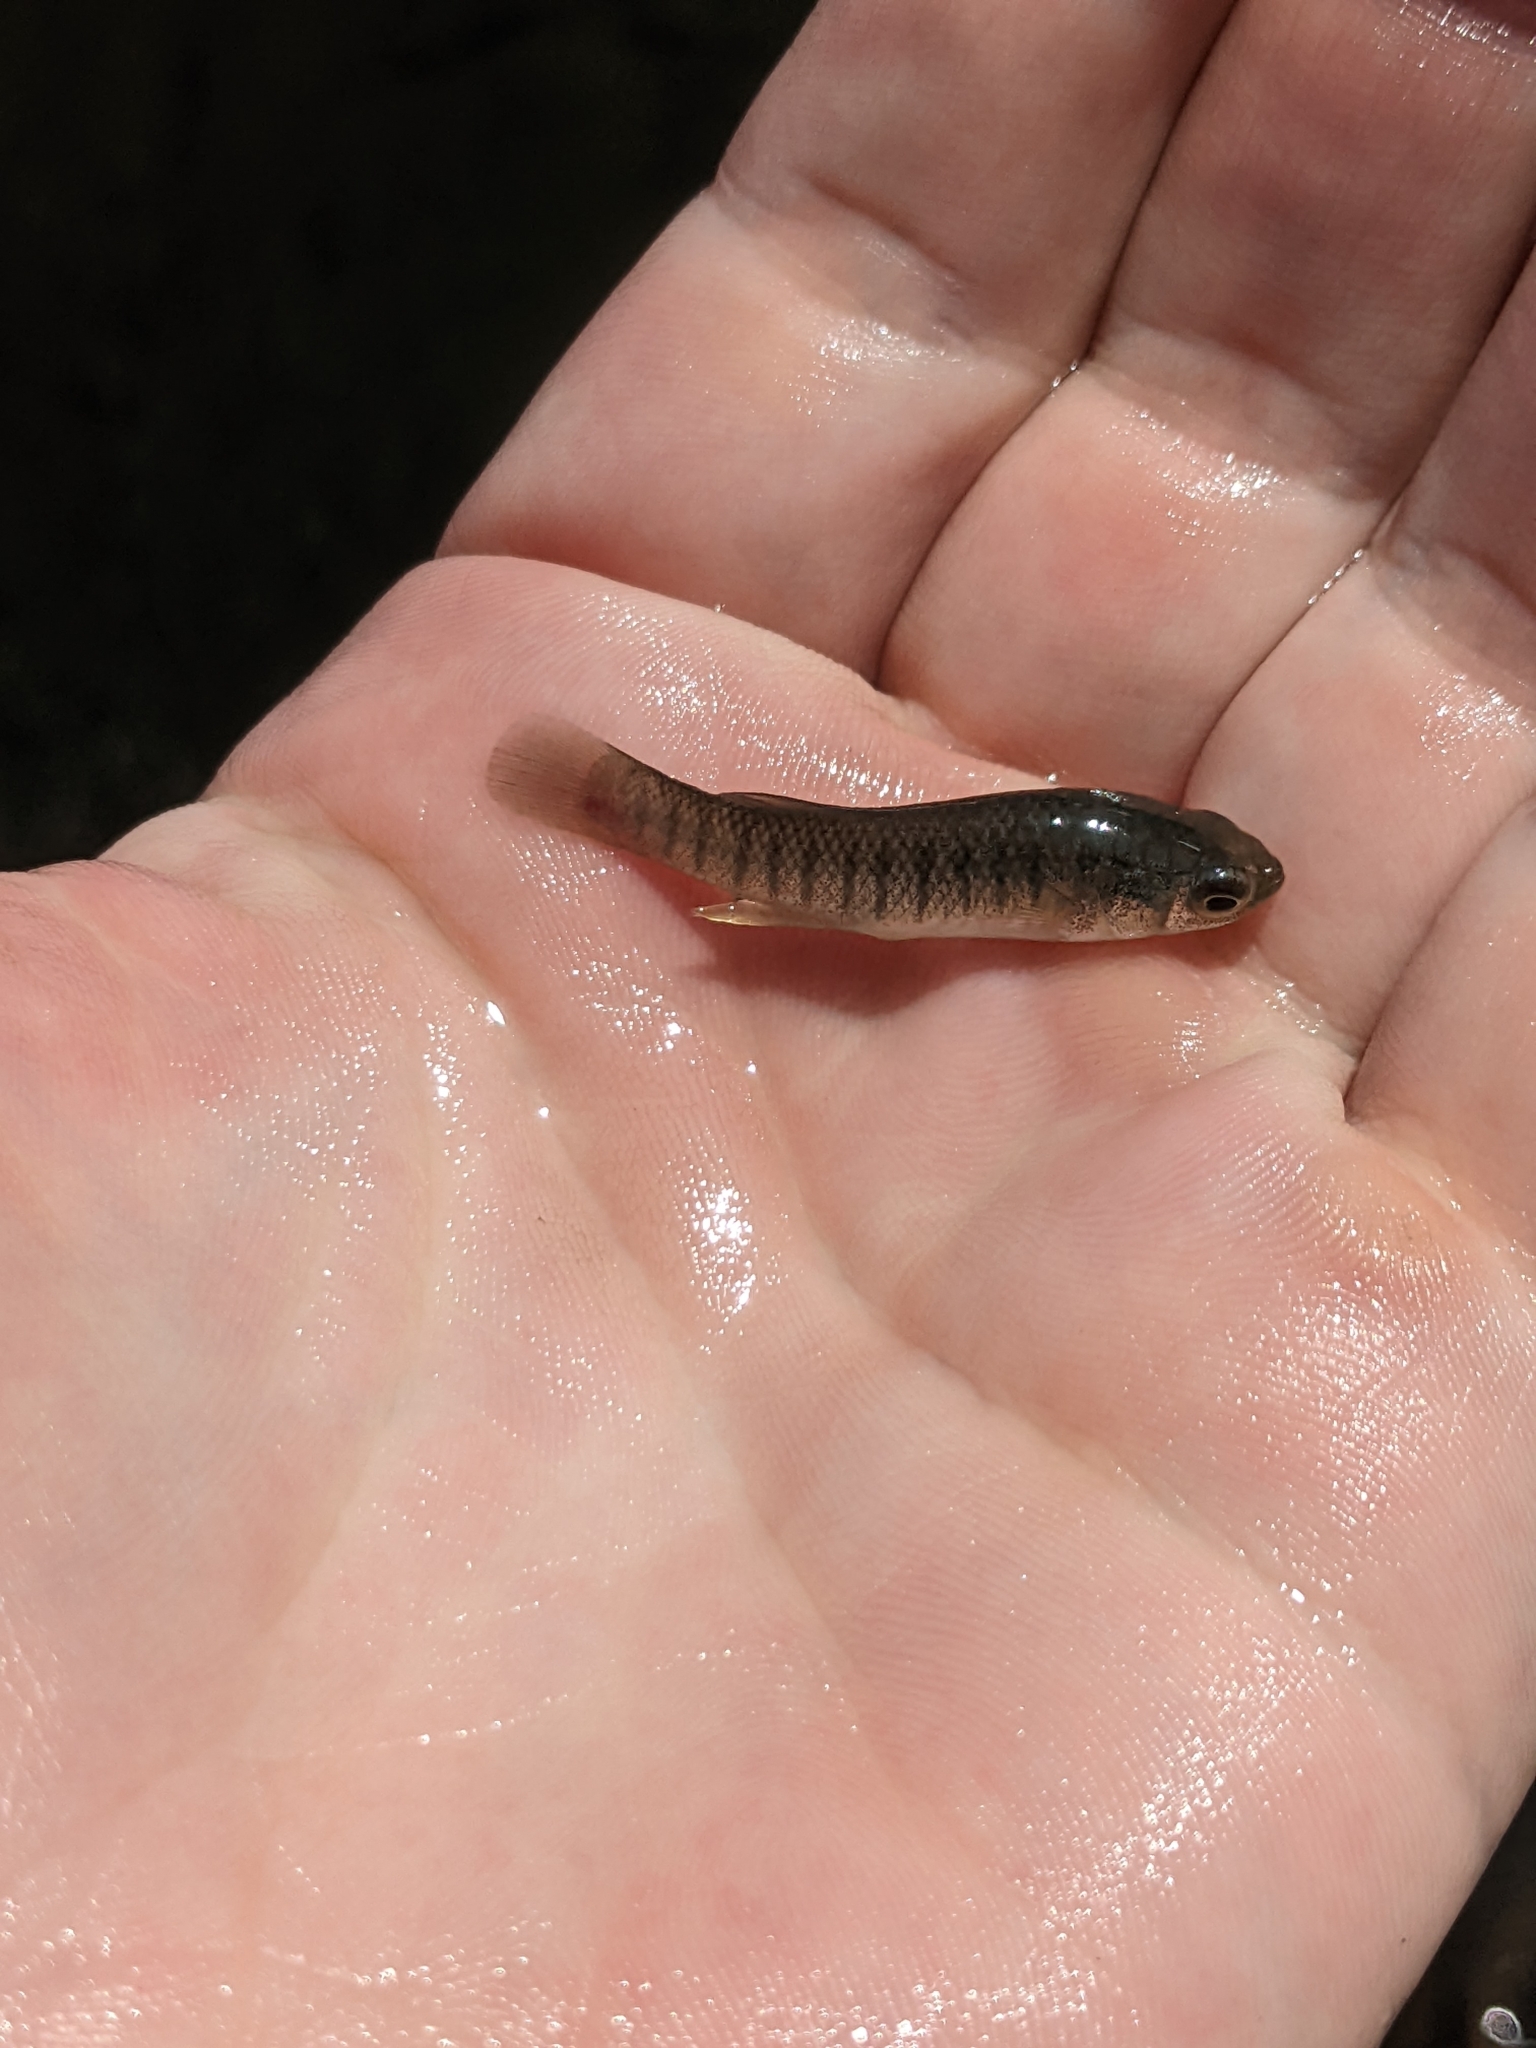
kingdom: Animalia
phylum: Chordata
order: Cyprinodontiformes
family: Fundulidae
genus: Fundulus
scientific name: Fundulus heteroclitus
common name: Mummichog
